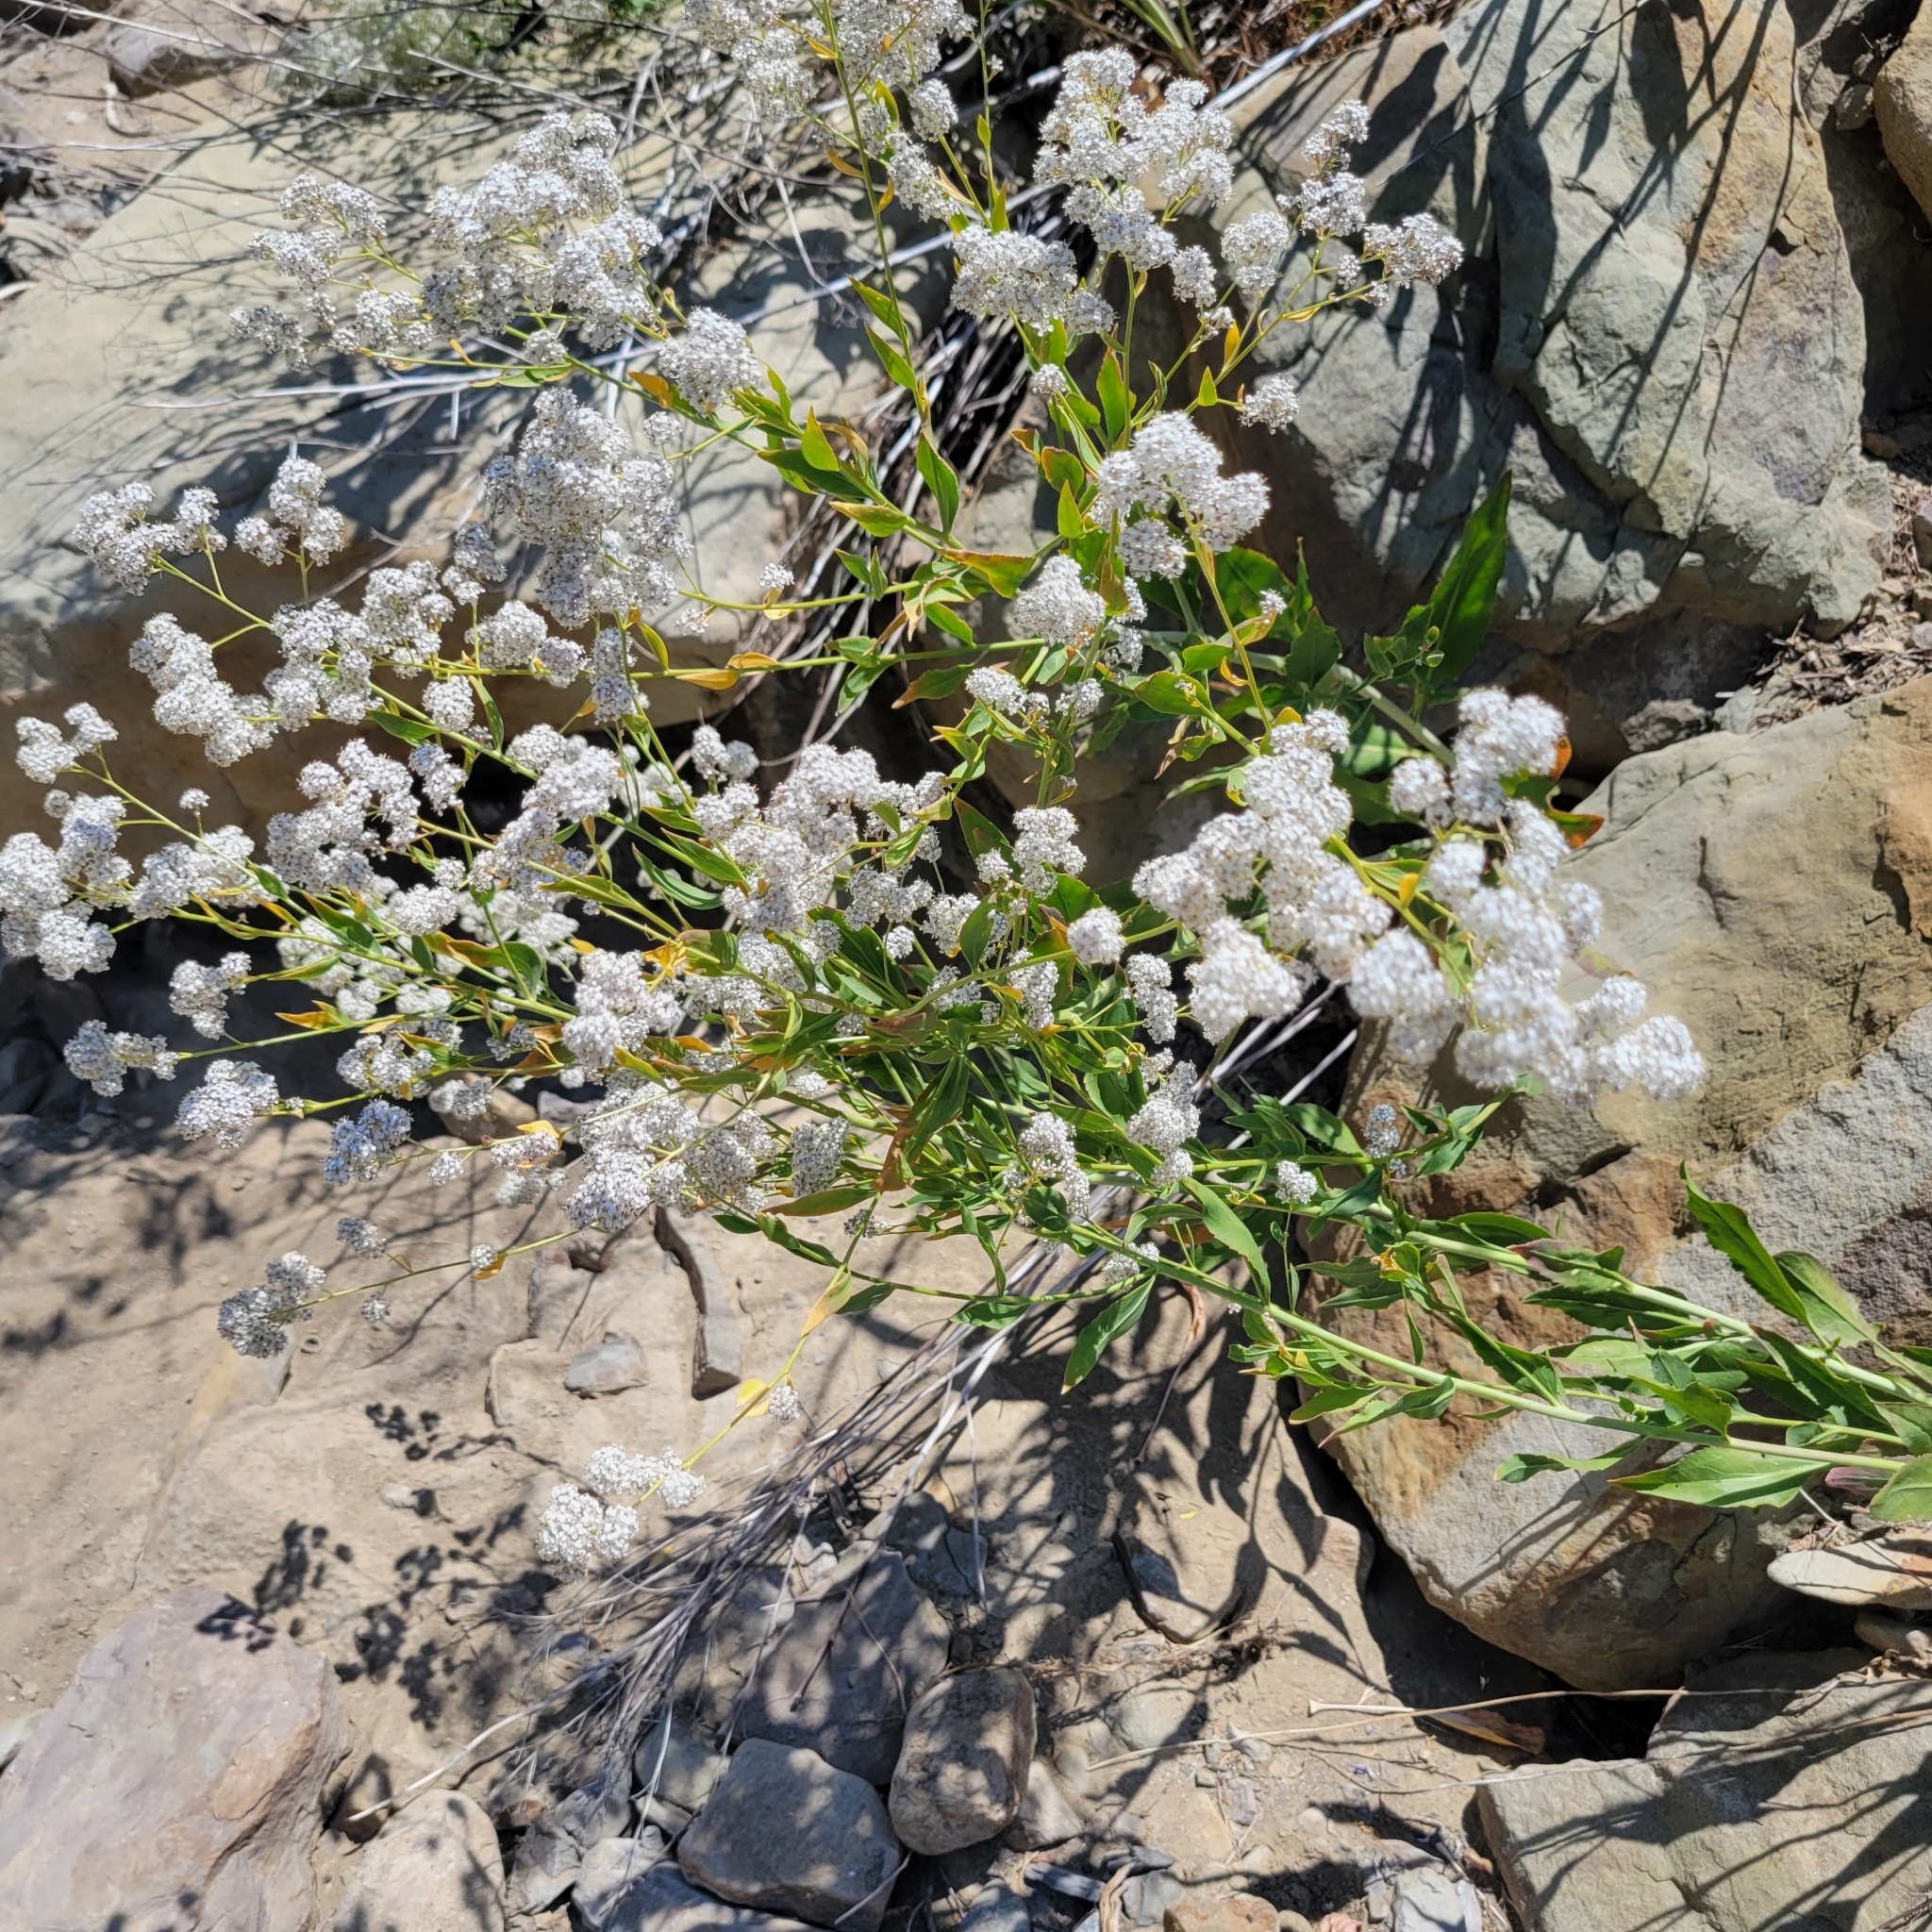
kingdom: Plantae
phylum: Tracheophyta
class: Magnoliopsida
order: Brassicales
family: Brassicaceae
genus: Lepidium
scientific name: Lepidium latifolium
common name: Dittander
